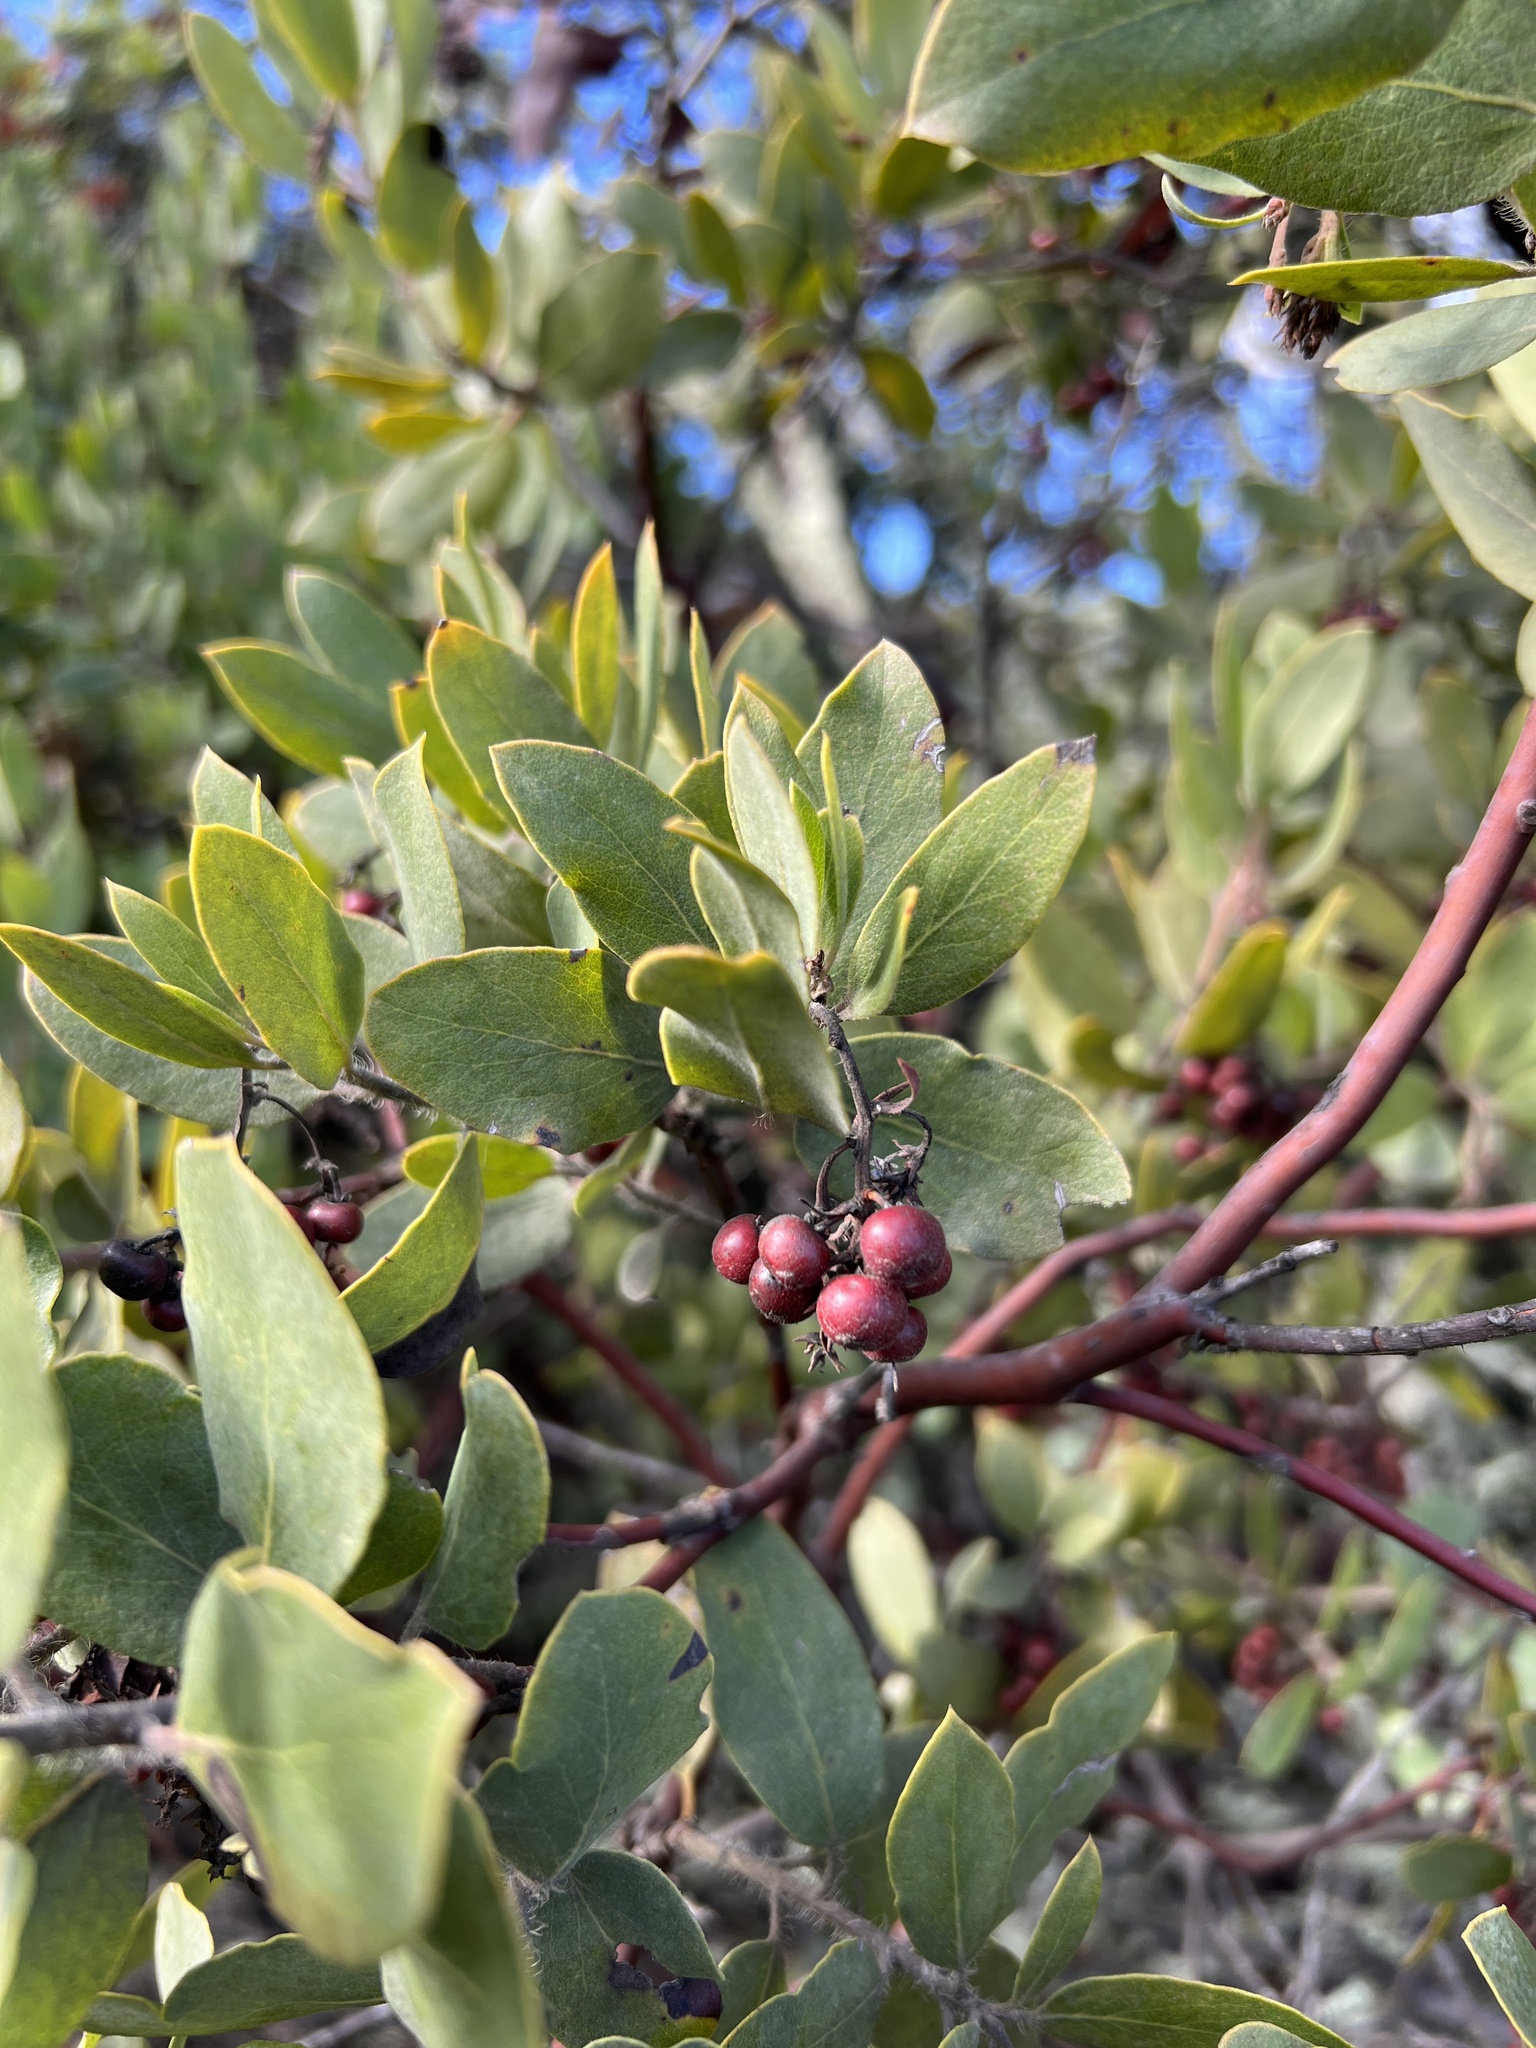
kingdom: Plantae
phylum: Tracheophyta
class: Magnoliopsida
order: Ericales
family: Ericaceae
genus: Arctostaphylos
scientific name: Arctostaphylos crustacea
